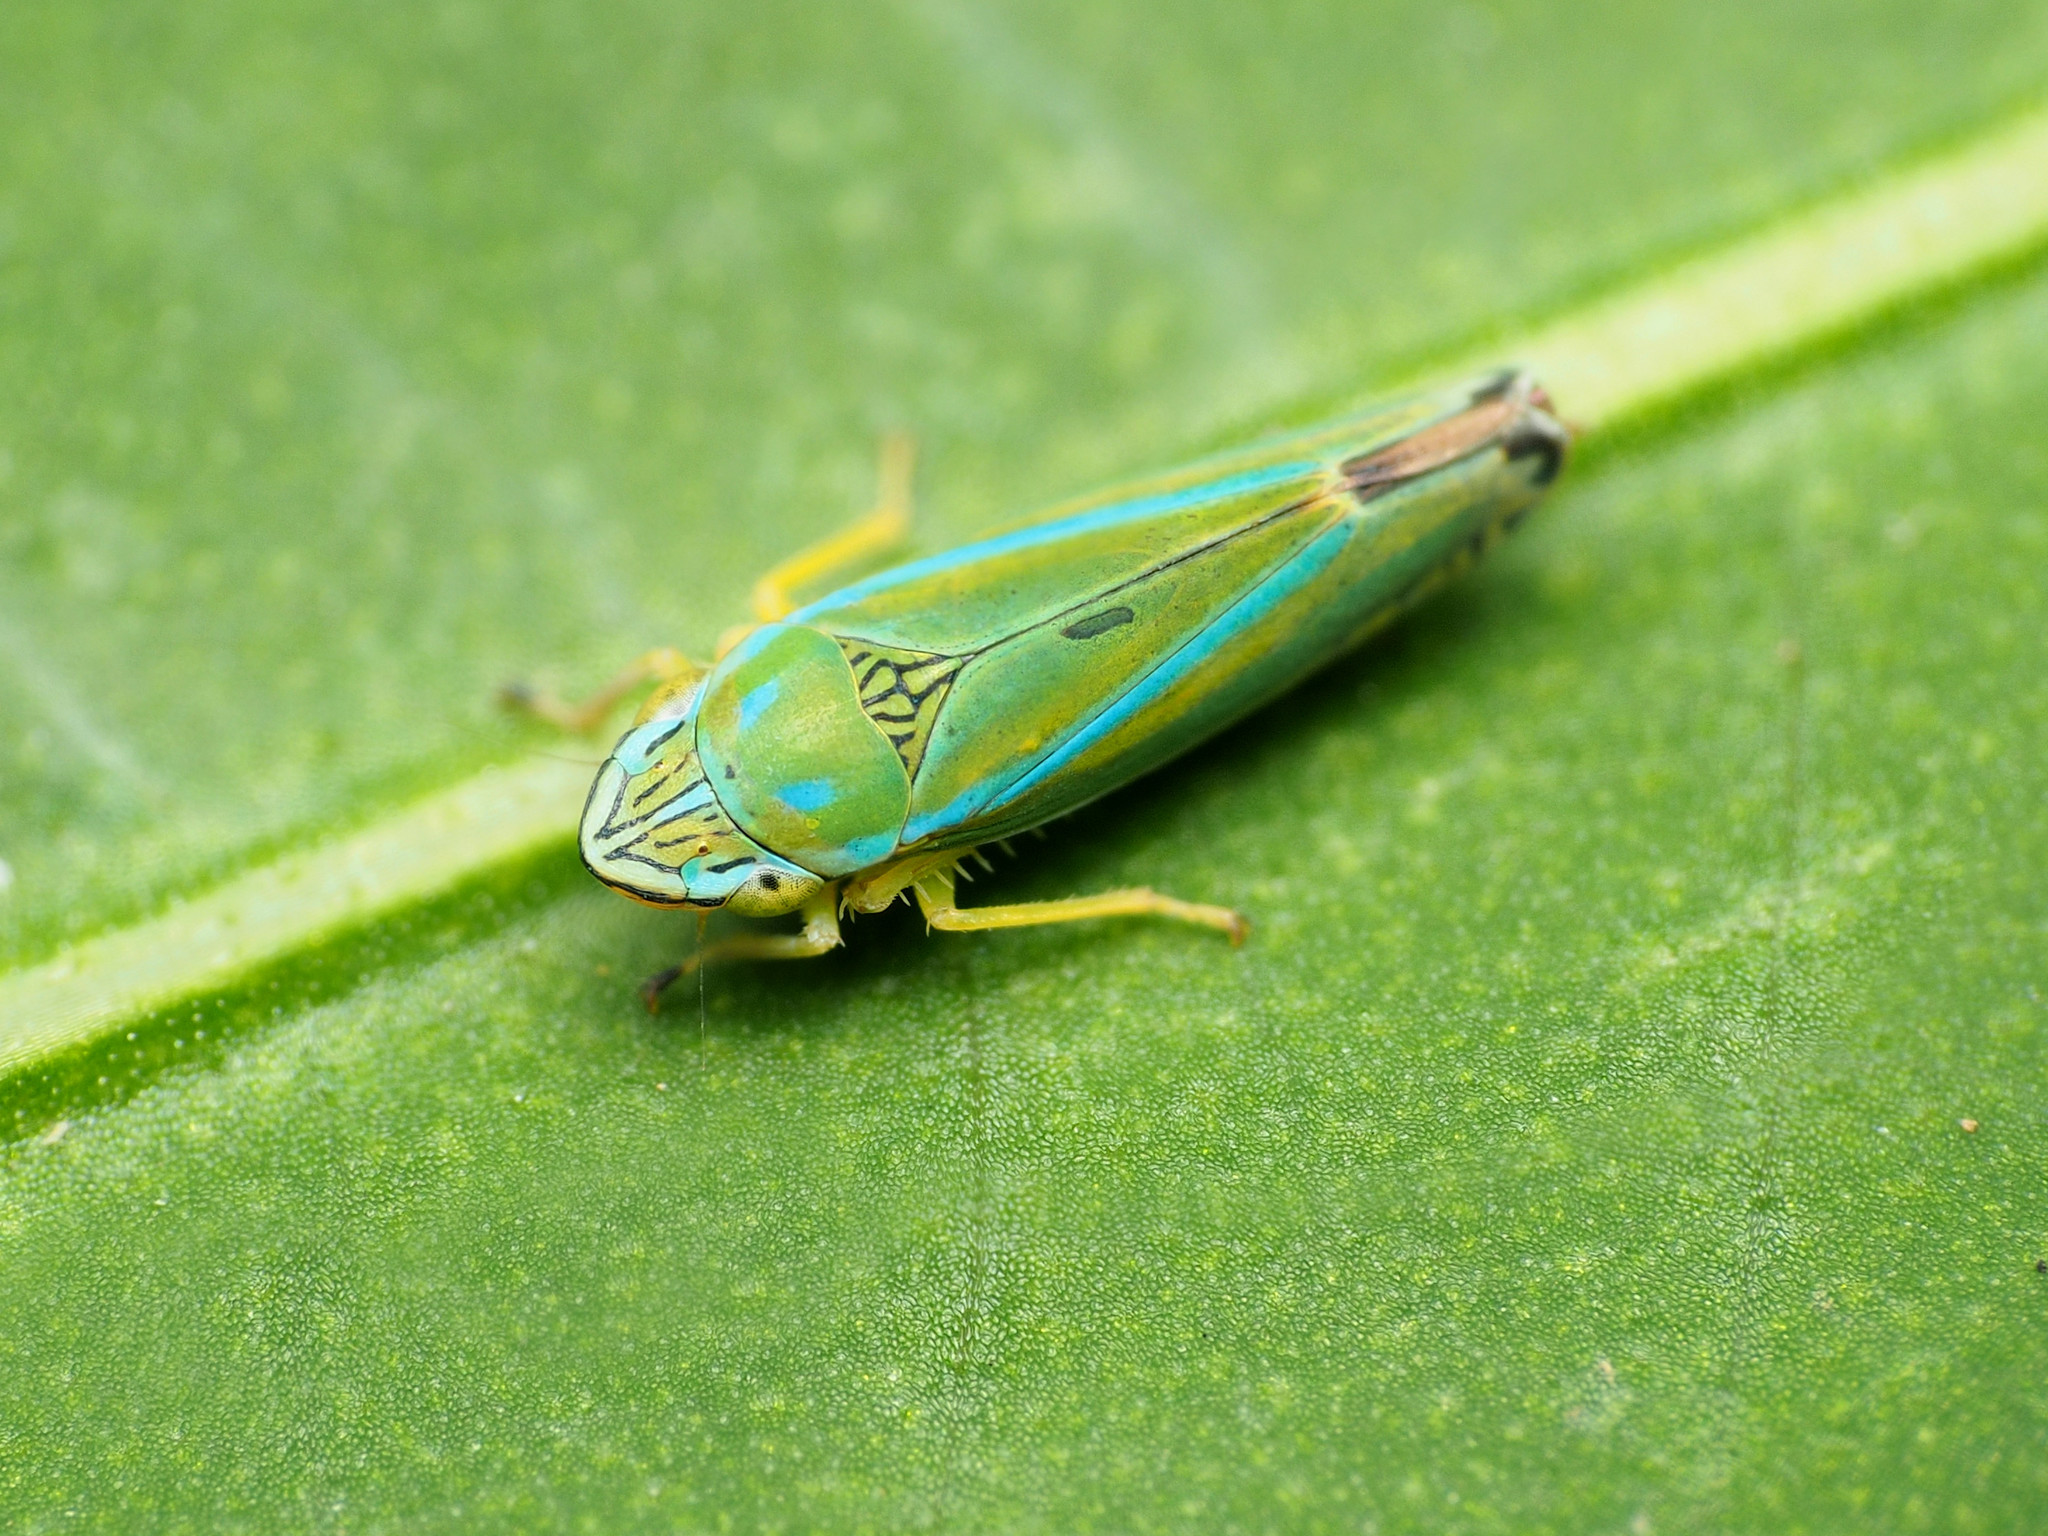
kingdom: Animalia
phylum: Arthropoda
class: Insecta
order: Hemiptera
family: Cicadellidae
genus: Graphocephala
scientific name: Graphocephala versuta
